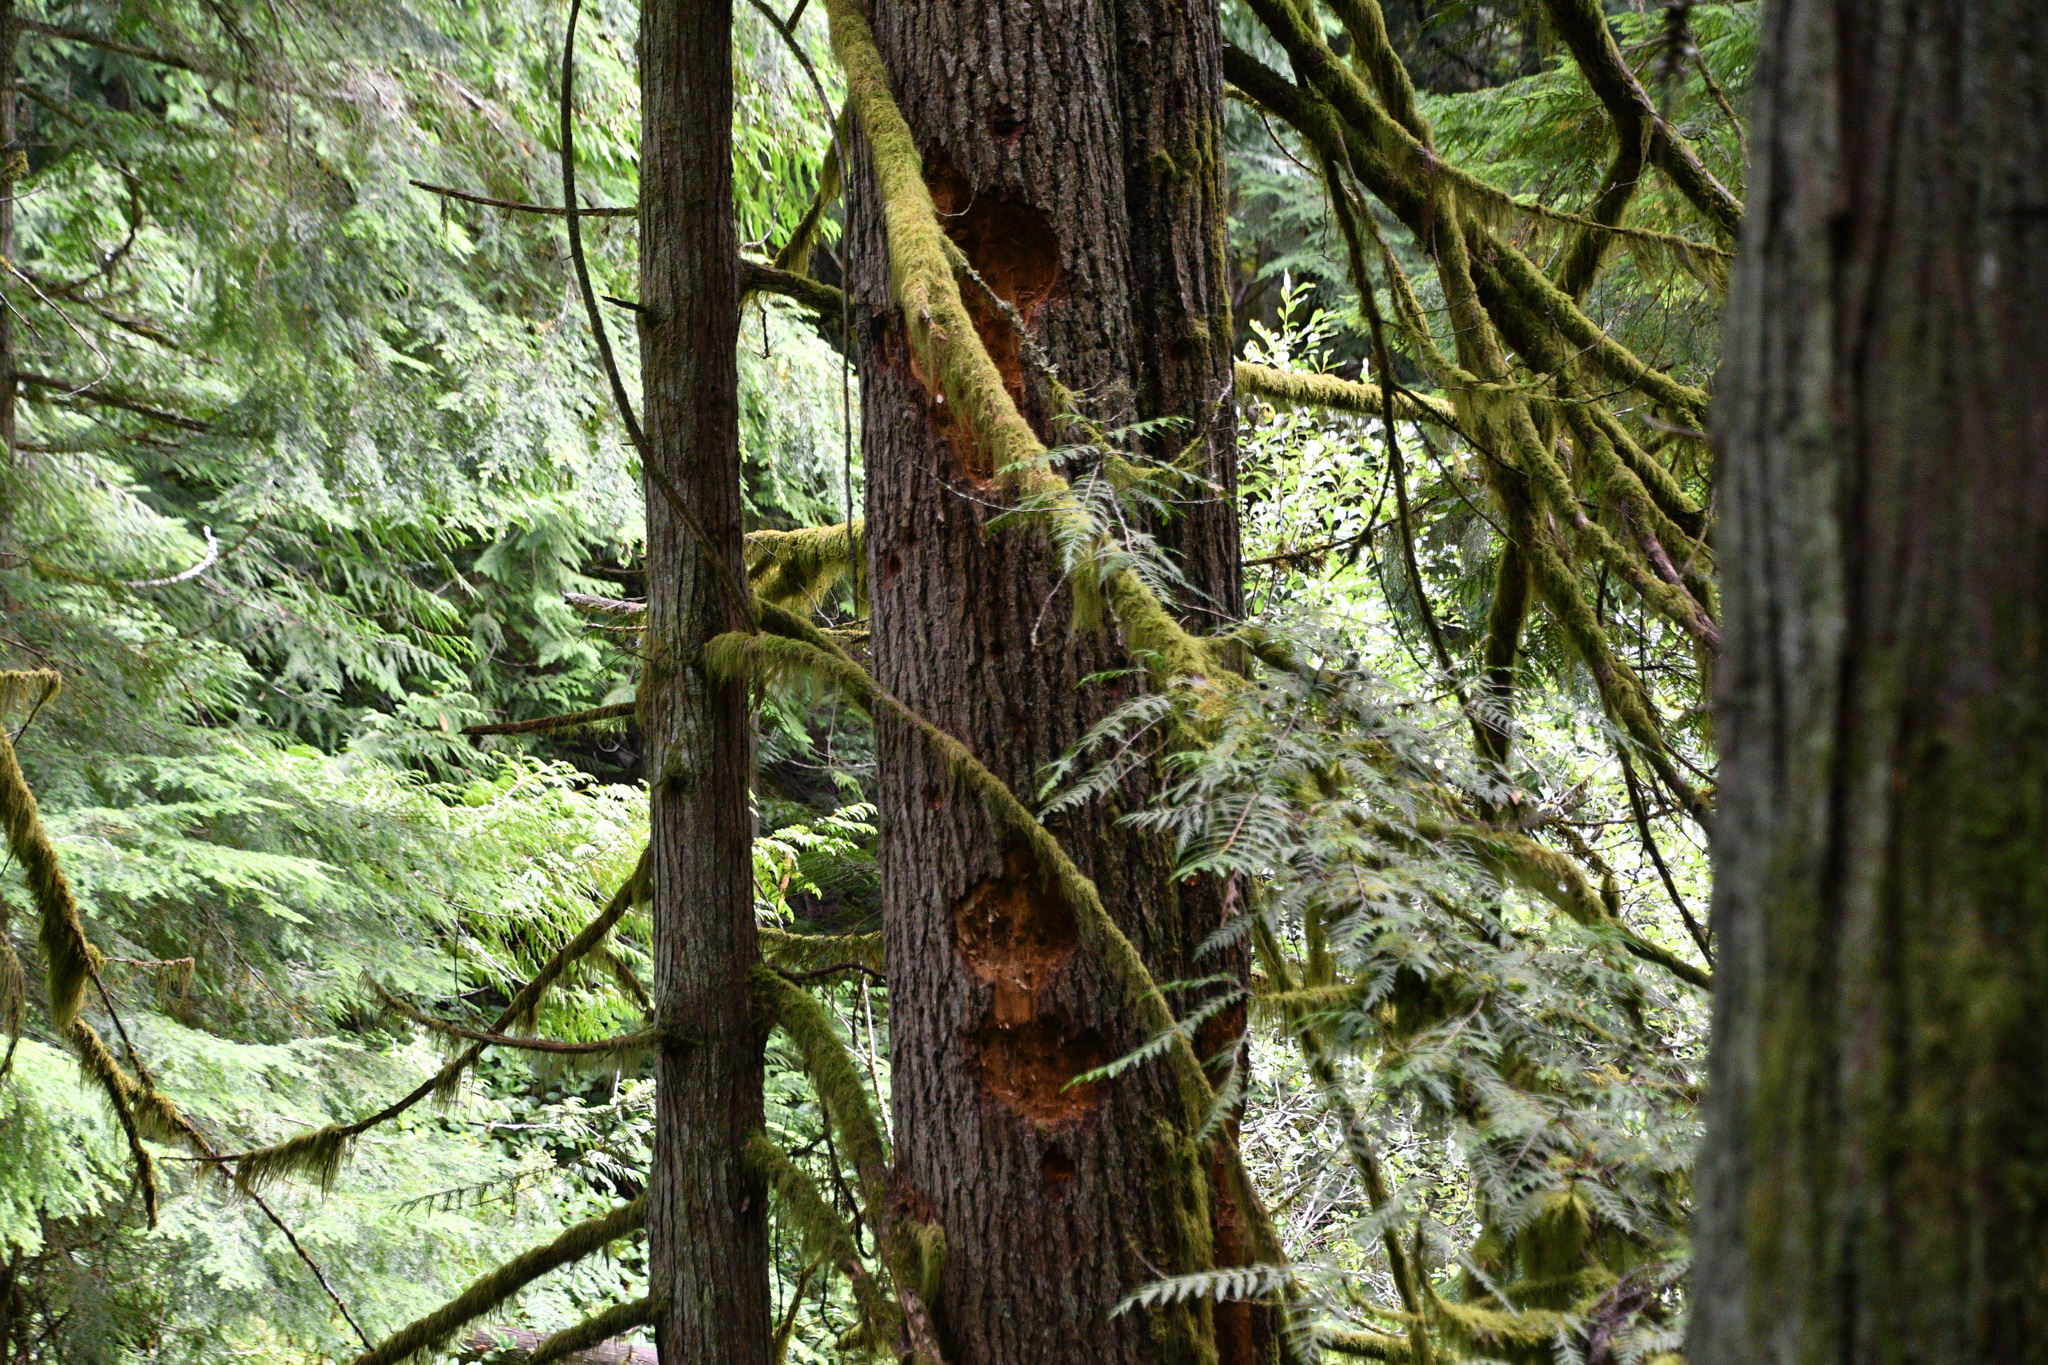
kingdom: Animalia
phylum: Chordata
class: Aves
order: Piciformes
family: Picidae
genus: Dryocopus
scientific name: Dryocopus pileatus
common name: Pileated woodpecker
